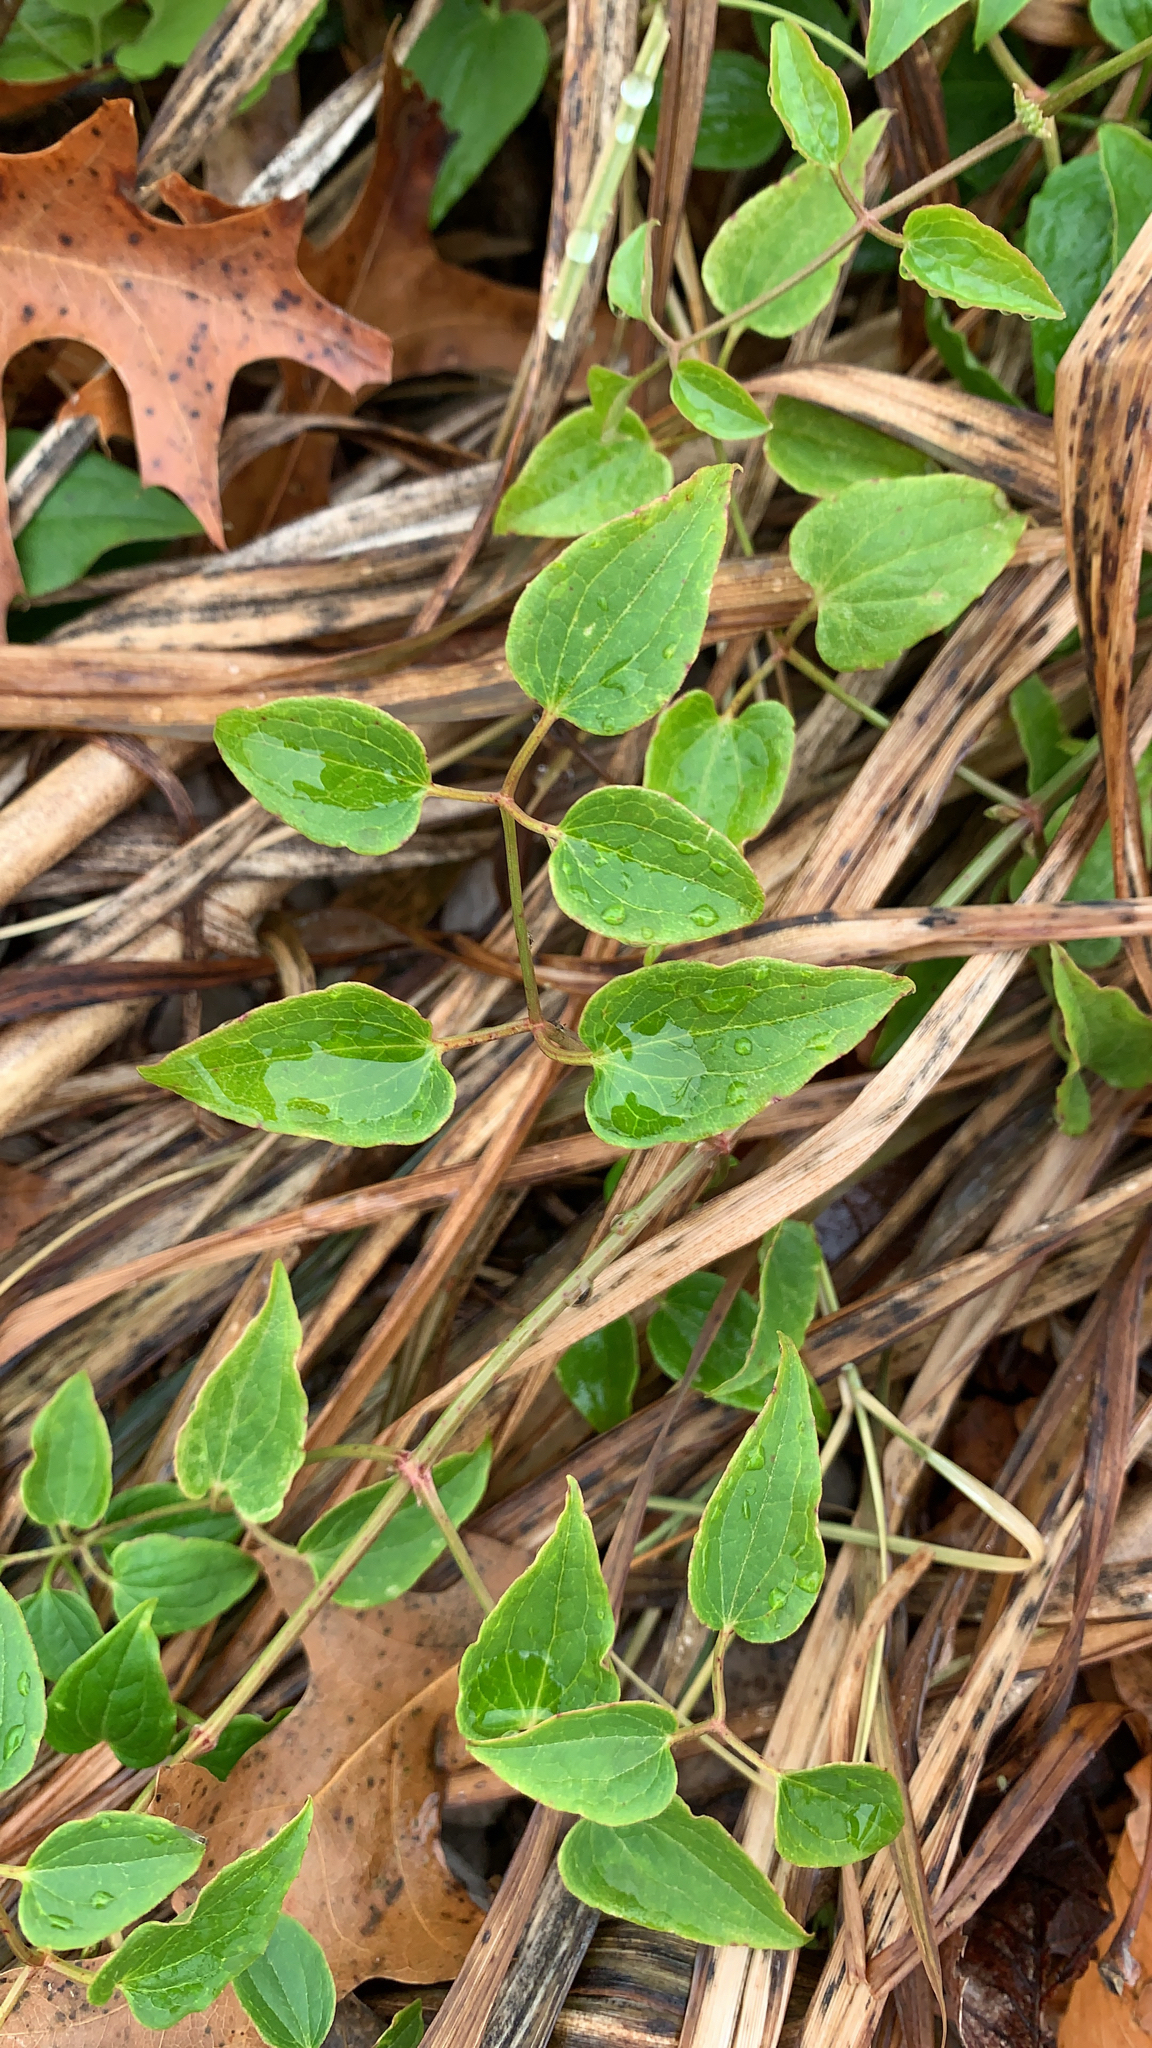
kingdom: Plantae
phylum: Tracheophyta
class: Magnoliopsida
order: Ranunculales
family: Ranunculaceae
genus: Clematis
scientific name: Clematis terniflora
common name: Sweet autumn clematis
